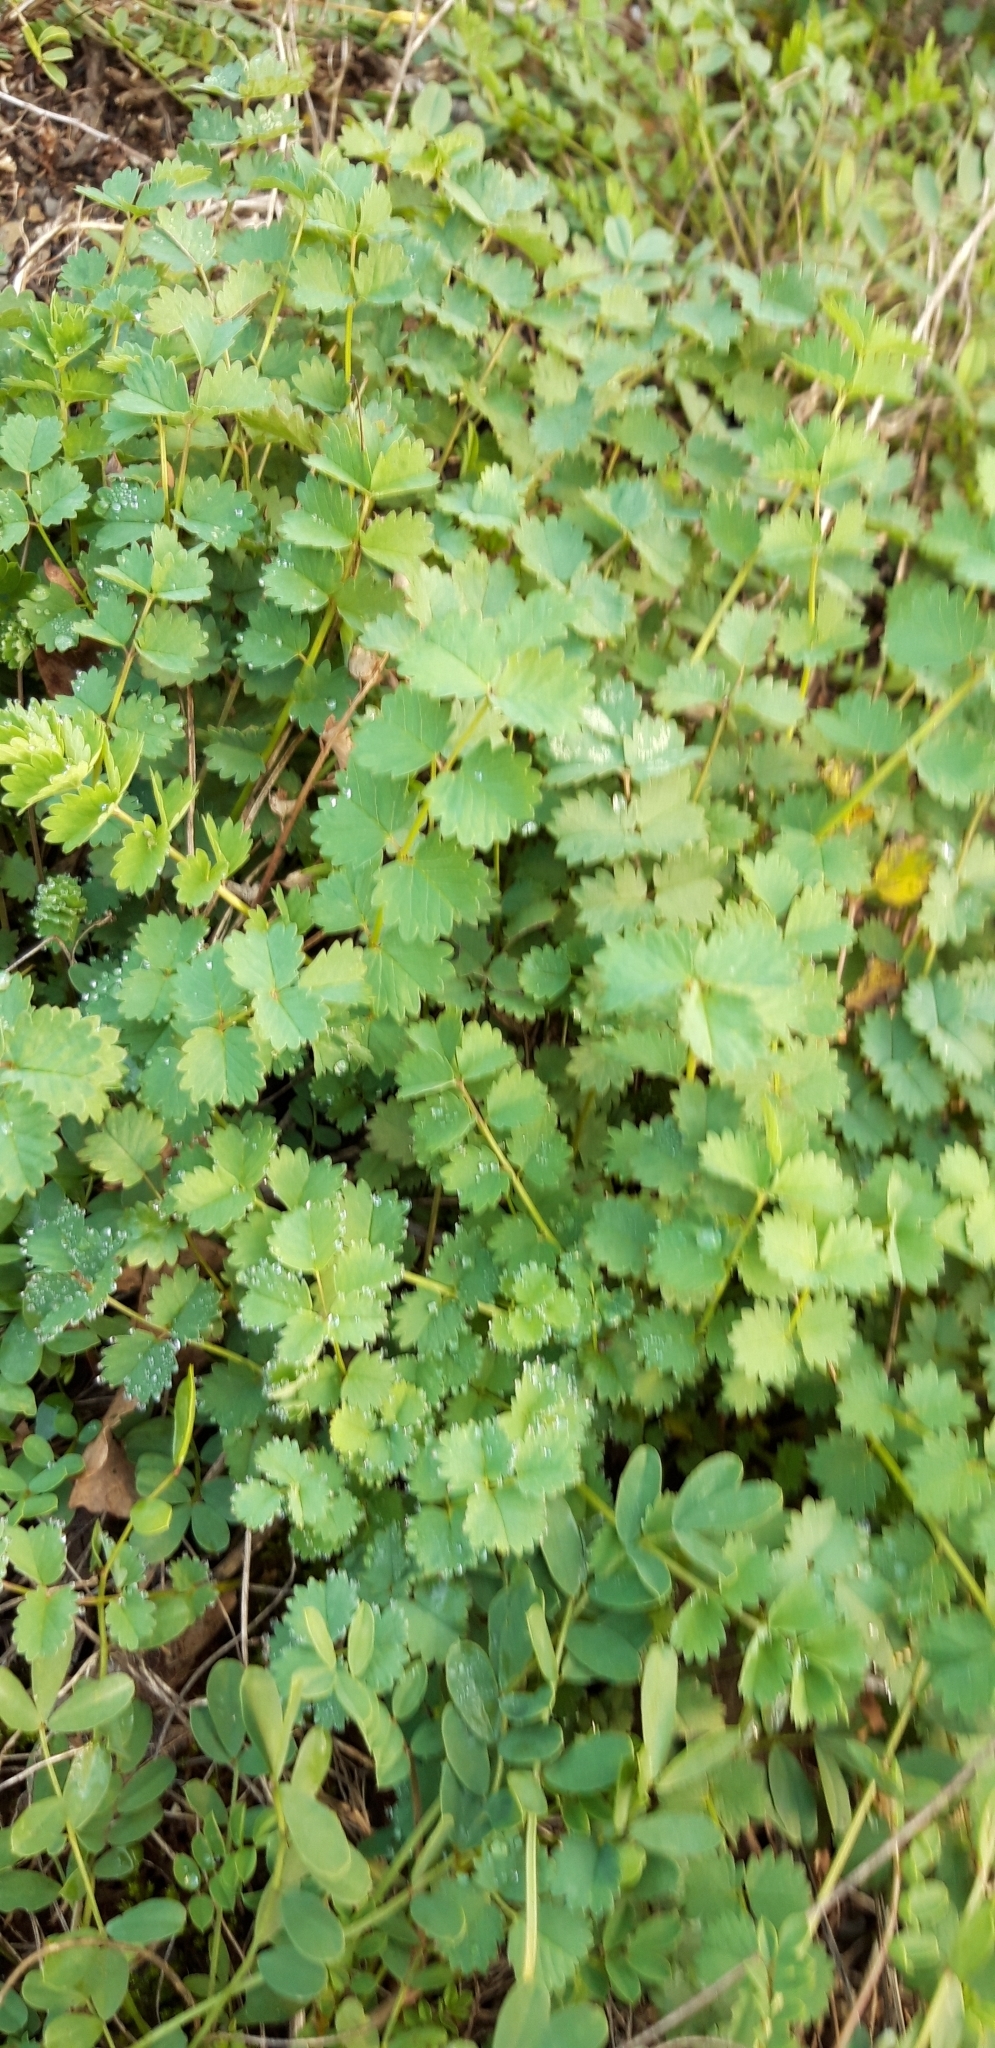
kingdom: Plantae
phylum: Tracheophyta
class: Magnoliopsida
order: Rosales
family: Rosaceae
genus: Poterium
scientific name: Poterium sanguisorba
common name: Salad burnet
